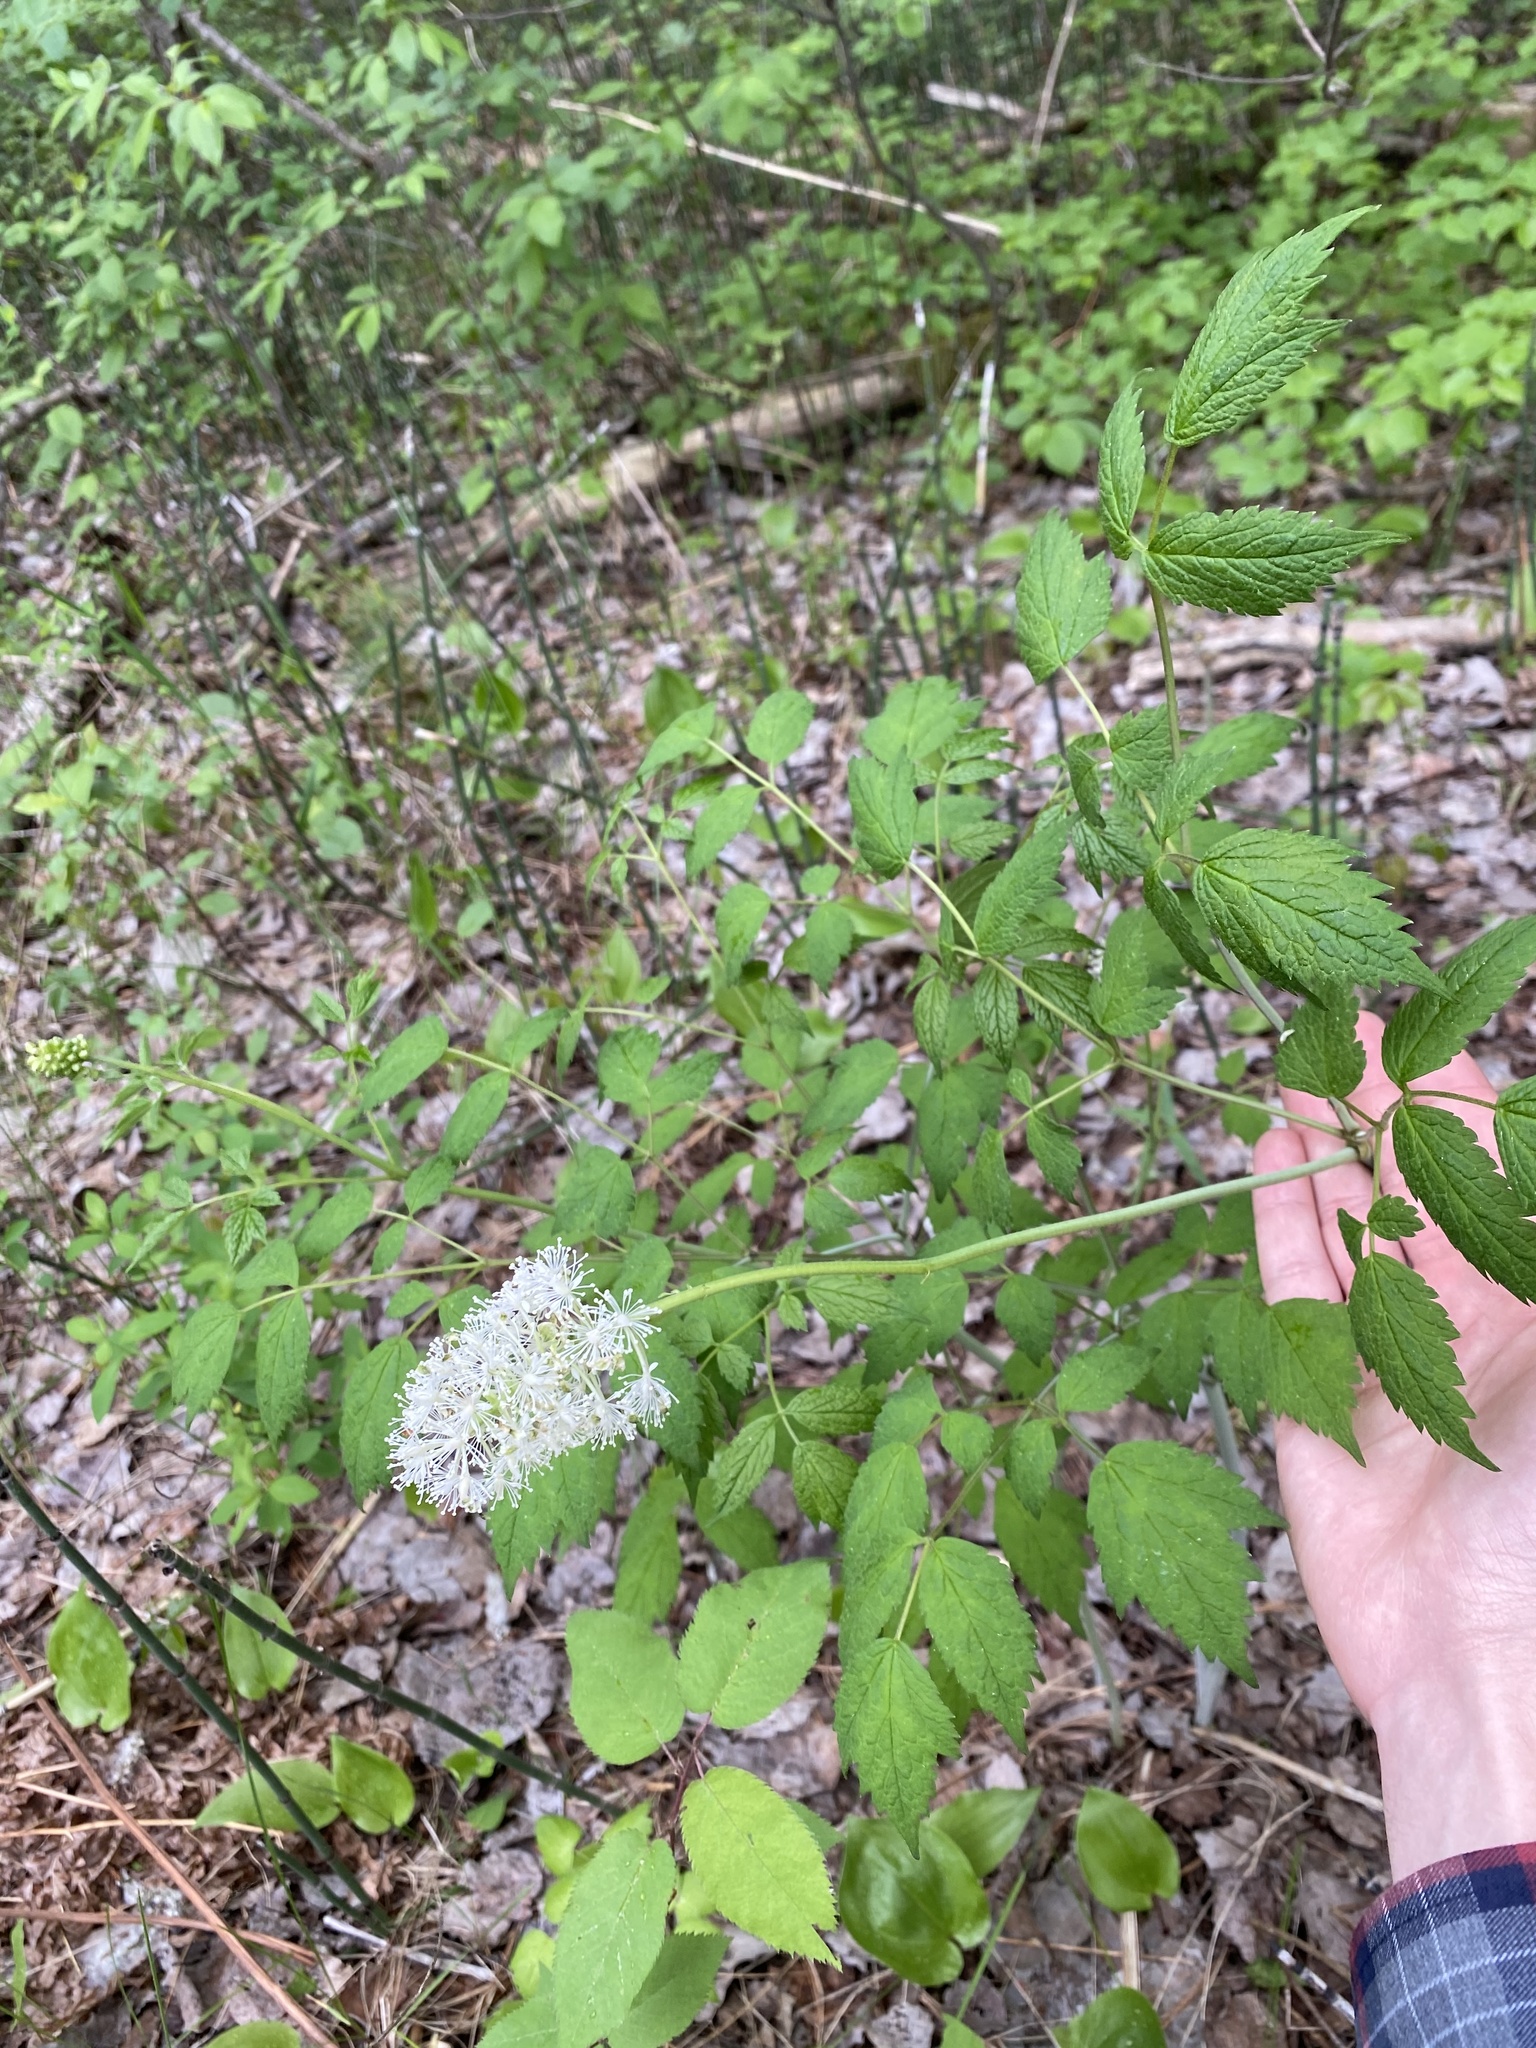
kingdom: Plantae
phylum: Tracheophyta
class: Magnoliopsida
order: Ranunculales
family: Ranunculaceae
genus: Actaea
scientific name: Actaea rubra
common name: Red baneberry
